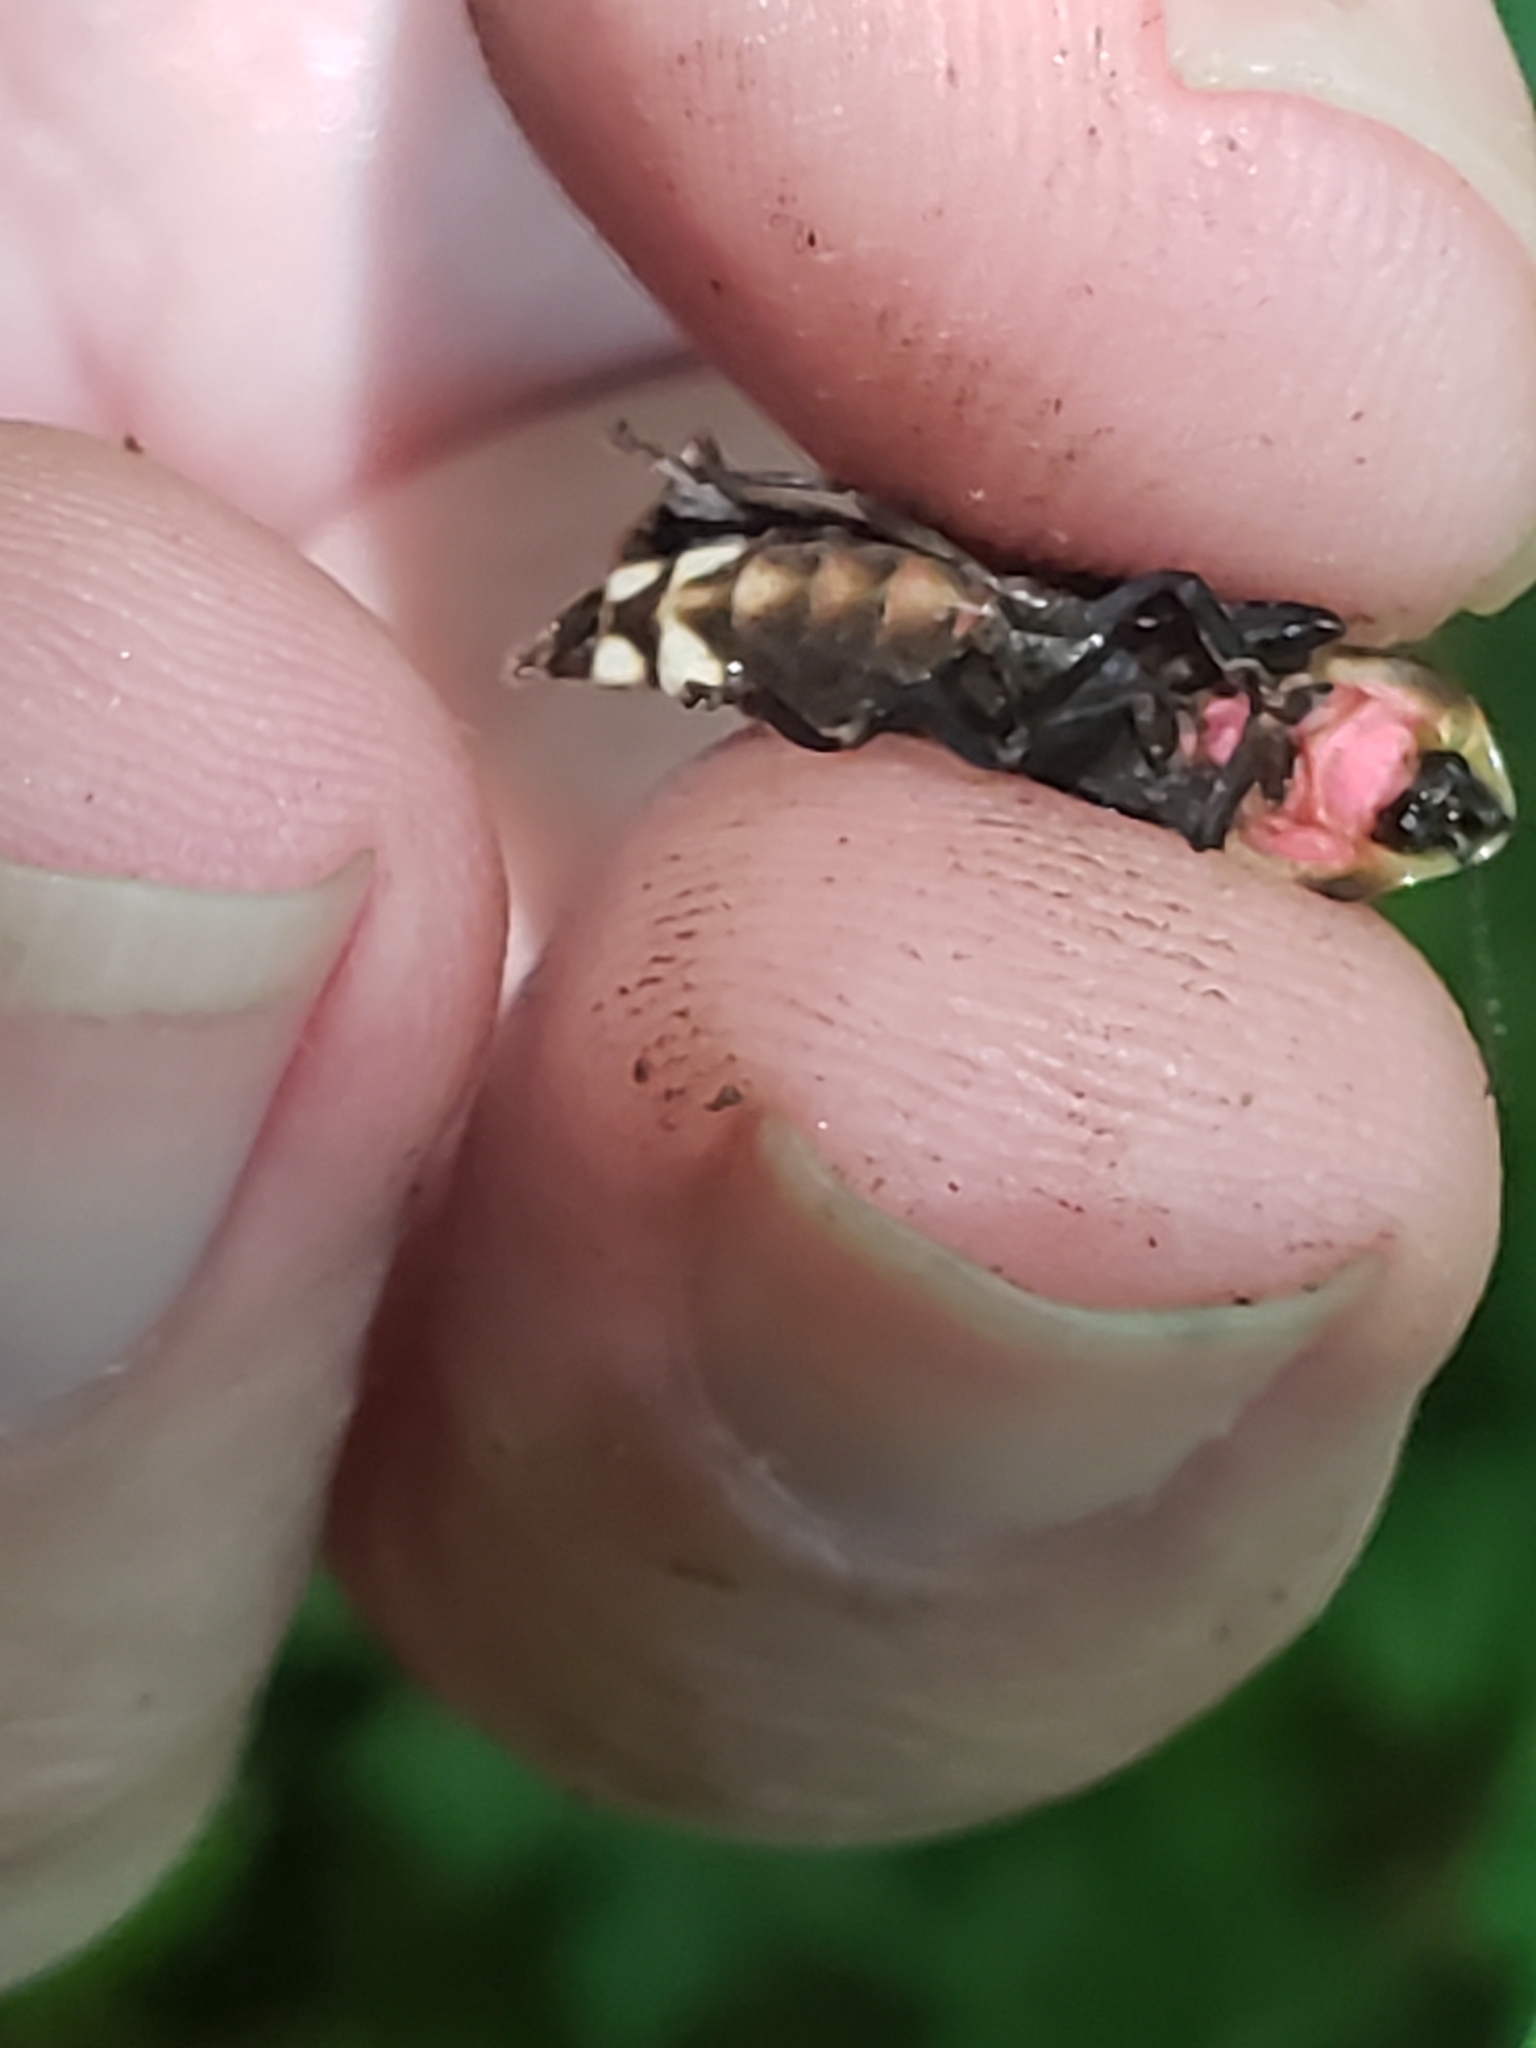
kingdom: Animalia
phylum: Arthropoda
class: Insecta
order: Coleoptera
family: Lampyridae
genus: Pyractomena
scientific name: Pyractomena borealis
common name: Northern firefly
